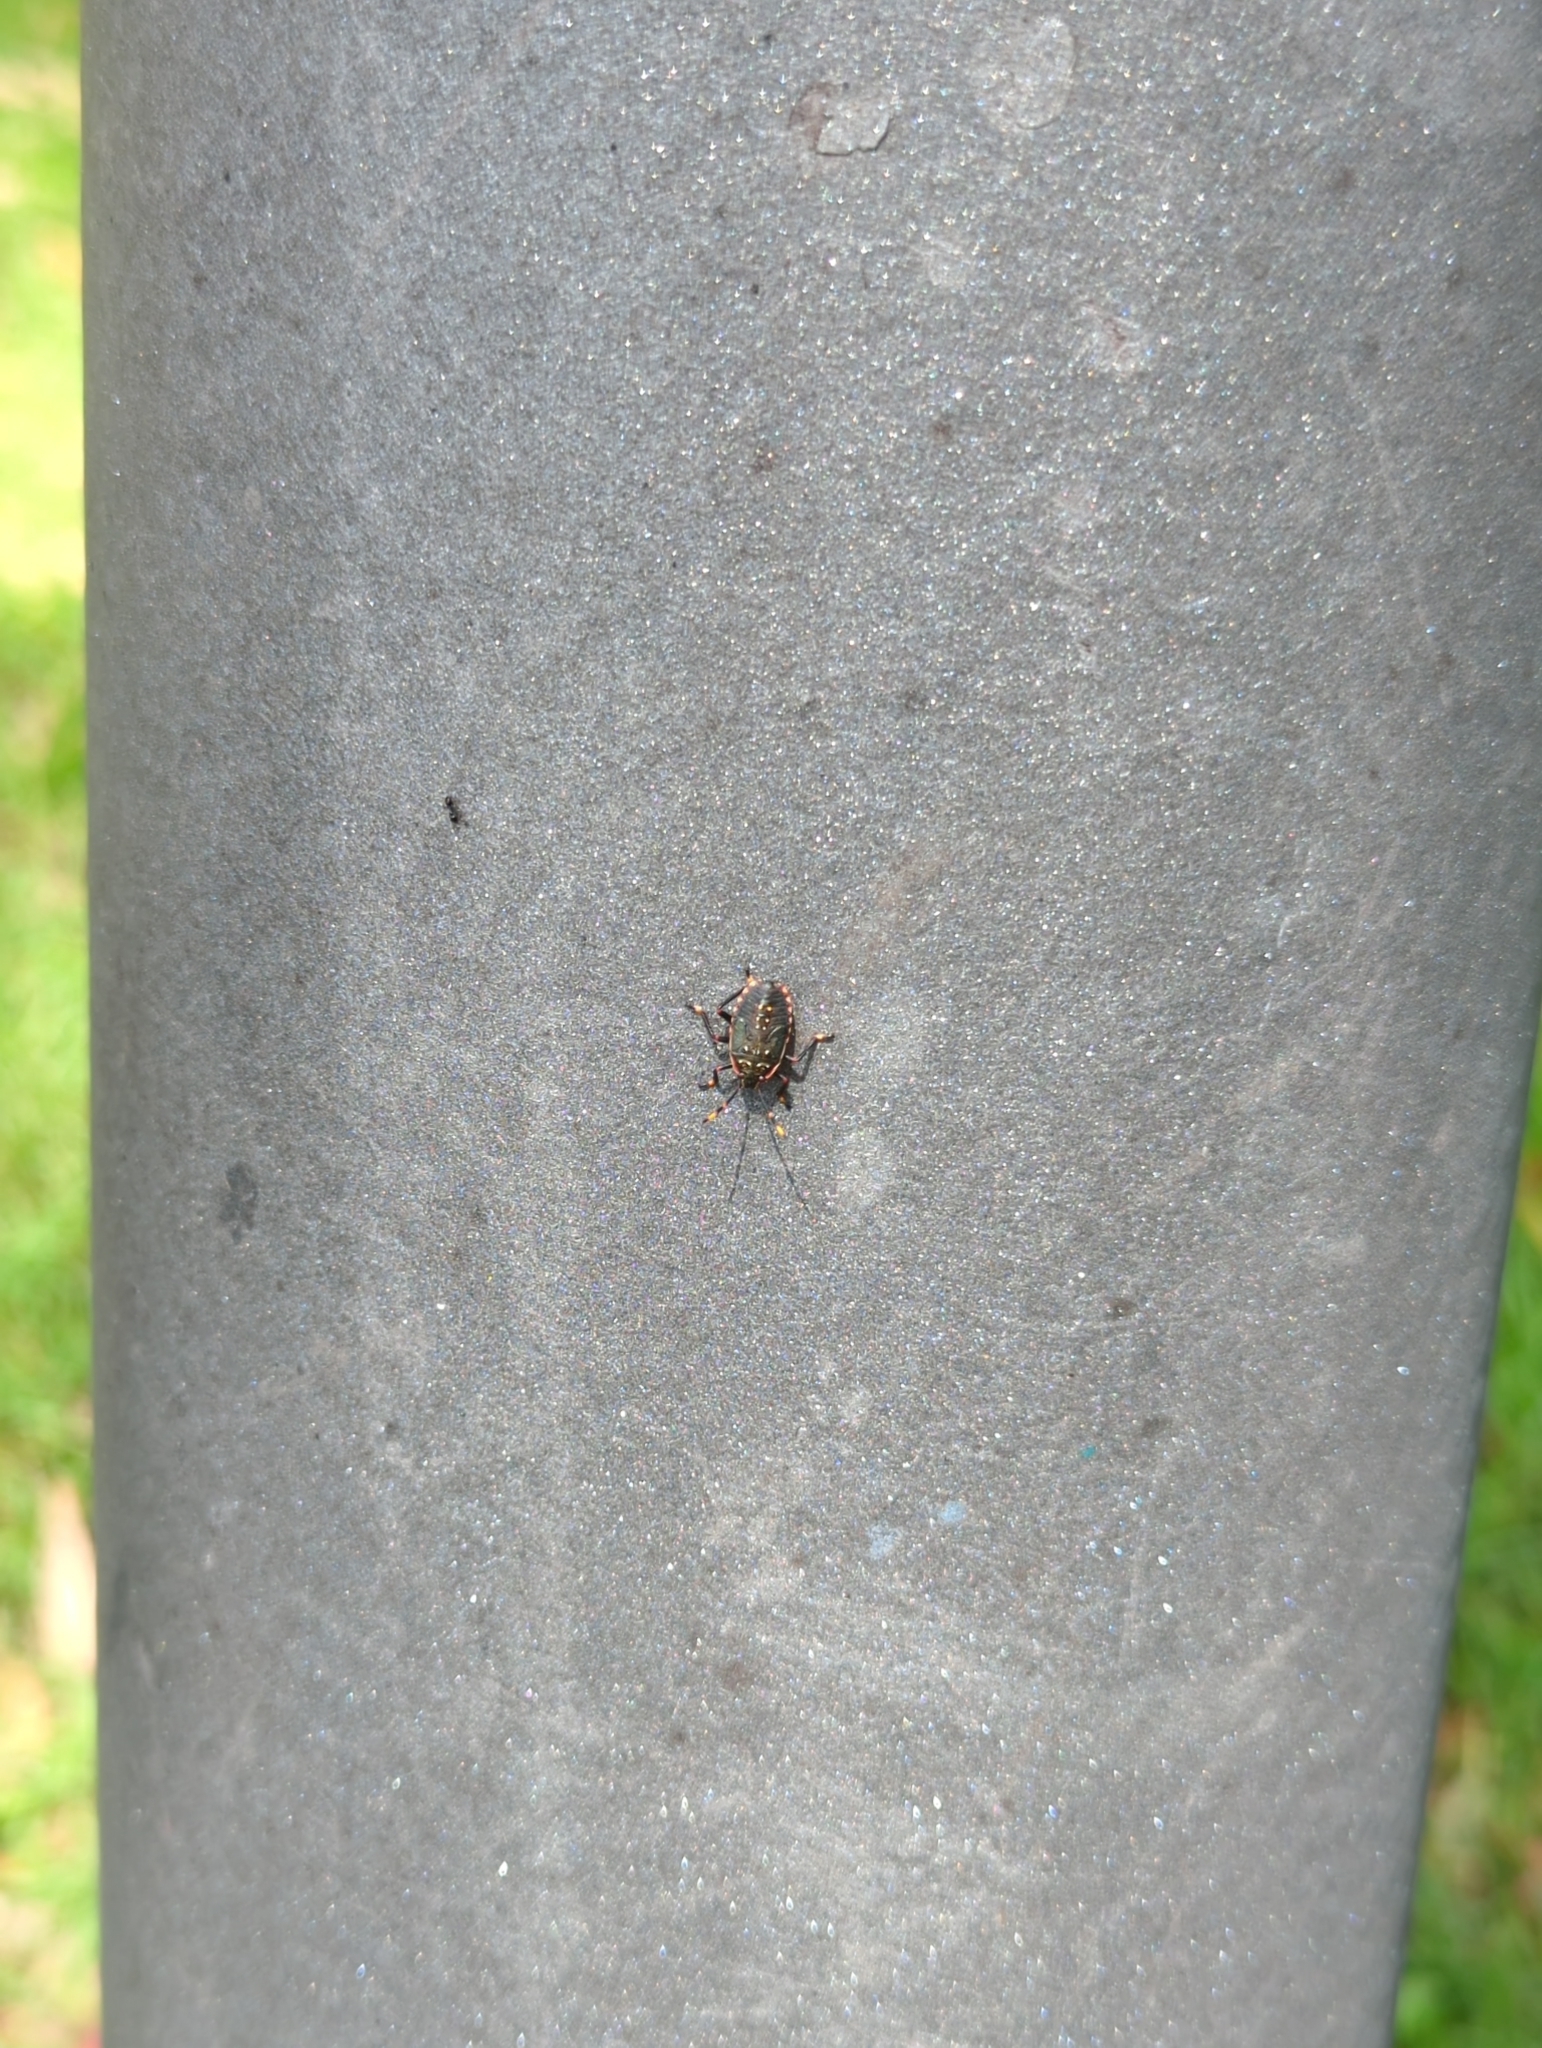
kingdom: Animalia
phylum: Arthropoda
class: Insecta
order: Hemiptera
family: Pentatomidae
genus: Notius
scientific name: Notius
